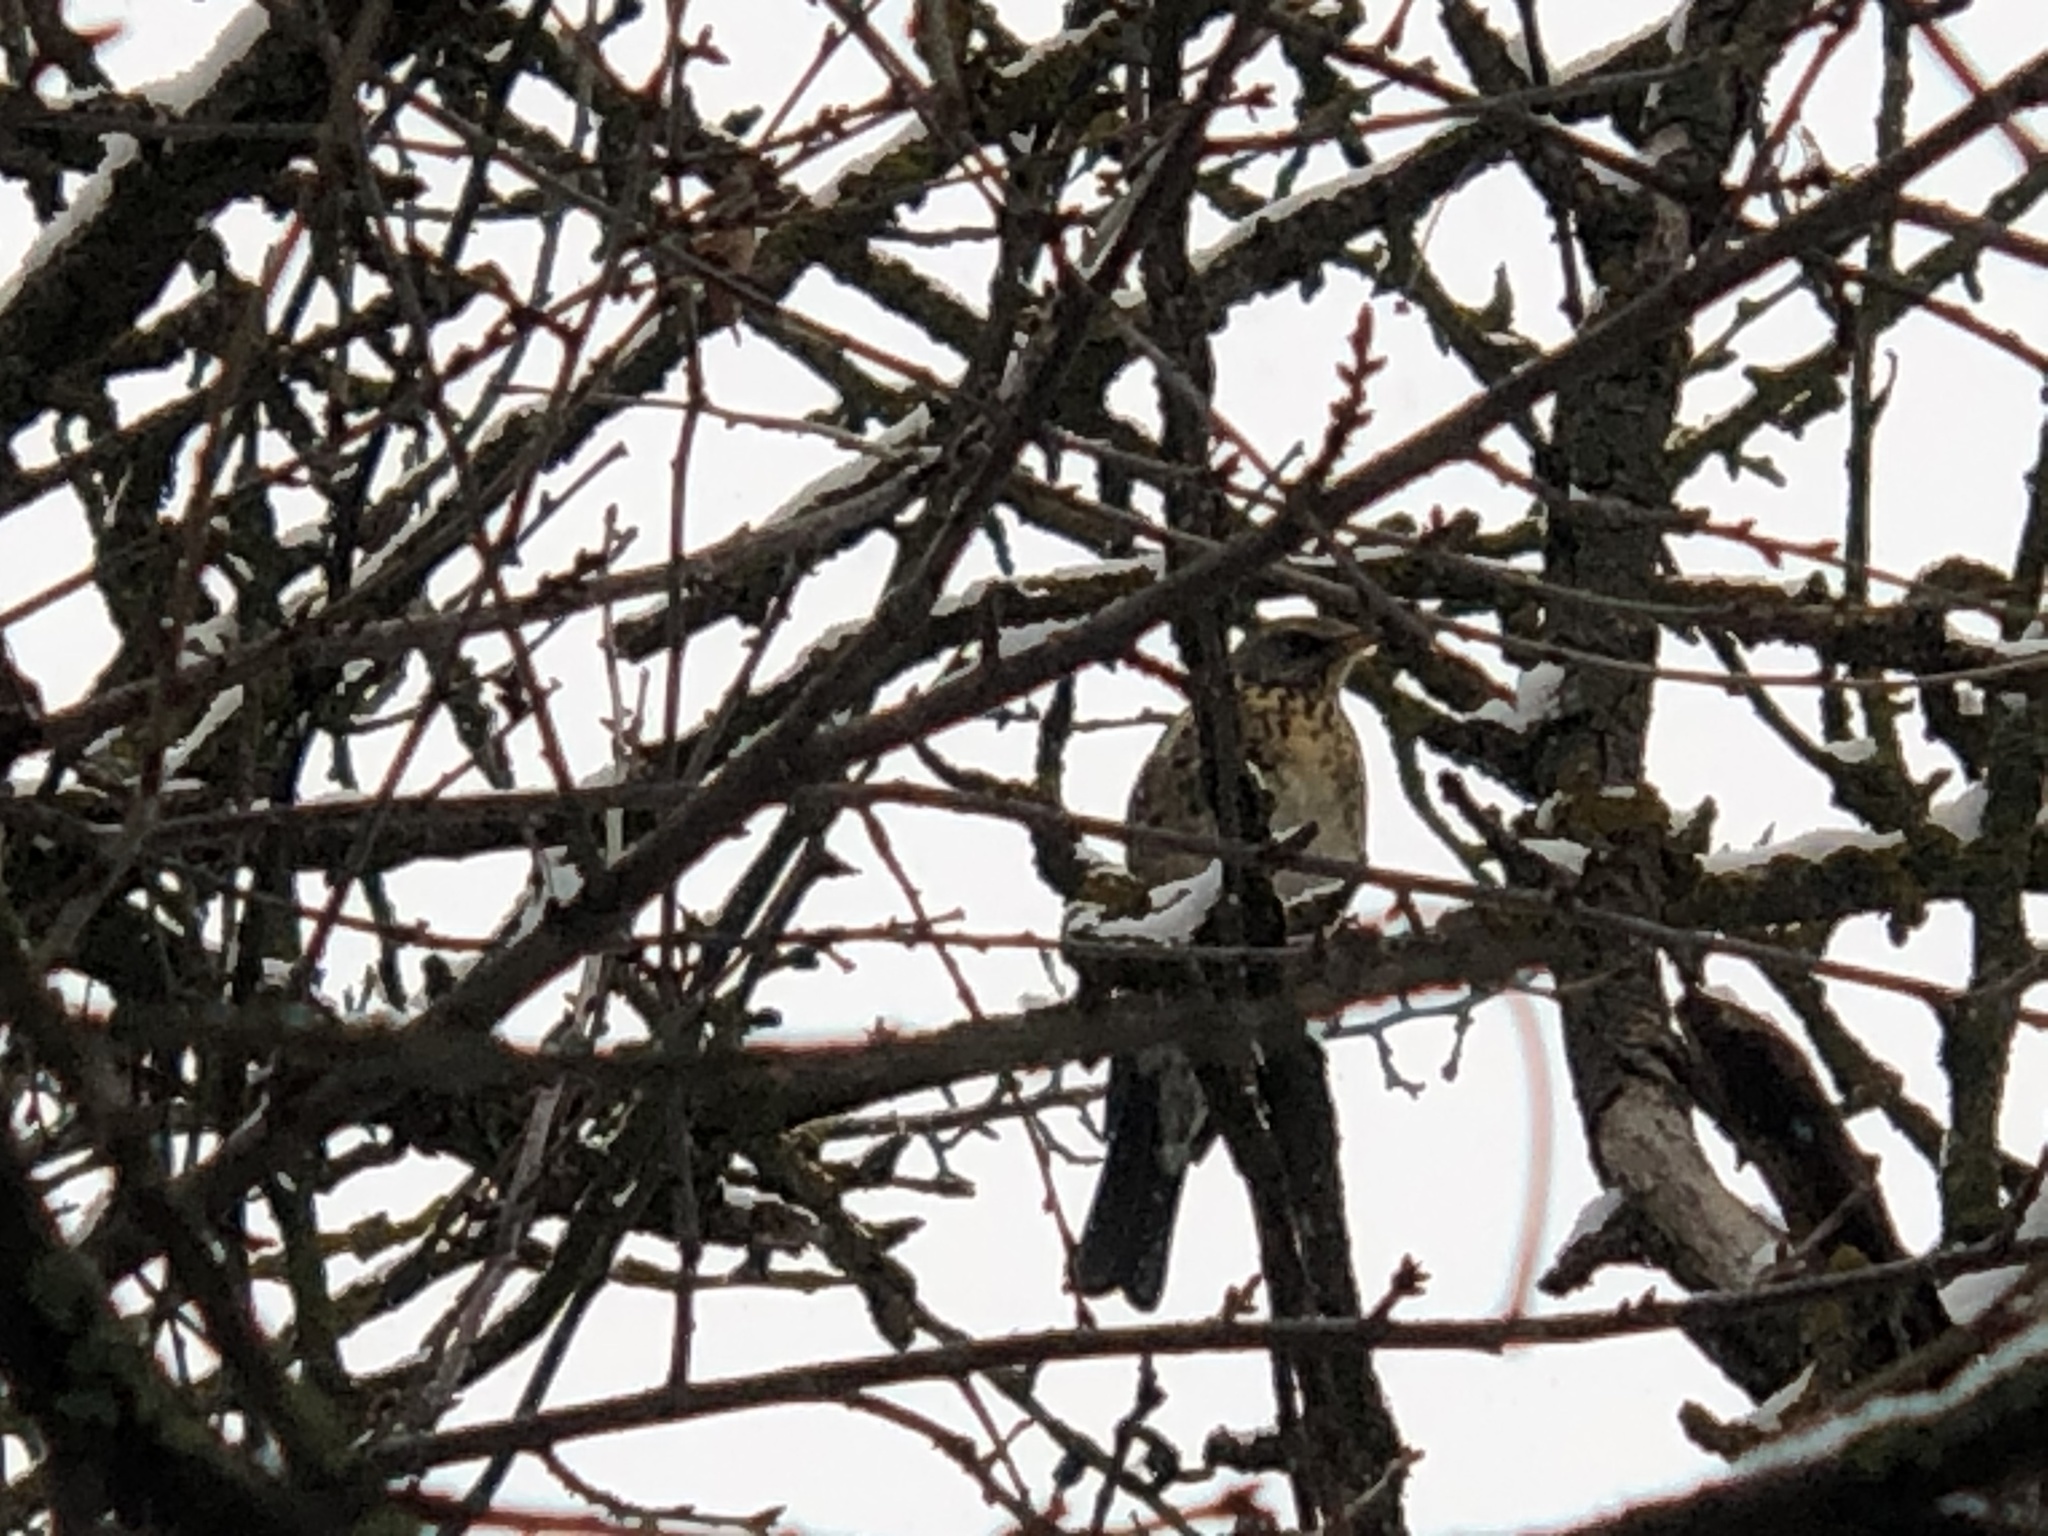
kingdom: Animalia
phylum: Chordata
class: Aves
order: Passeriformes
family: Turdidae
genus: Turdus
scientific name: Turdus pilaris
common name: Fieldfare
